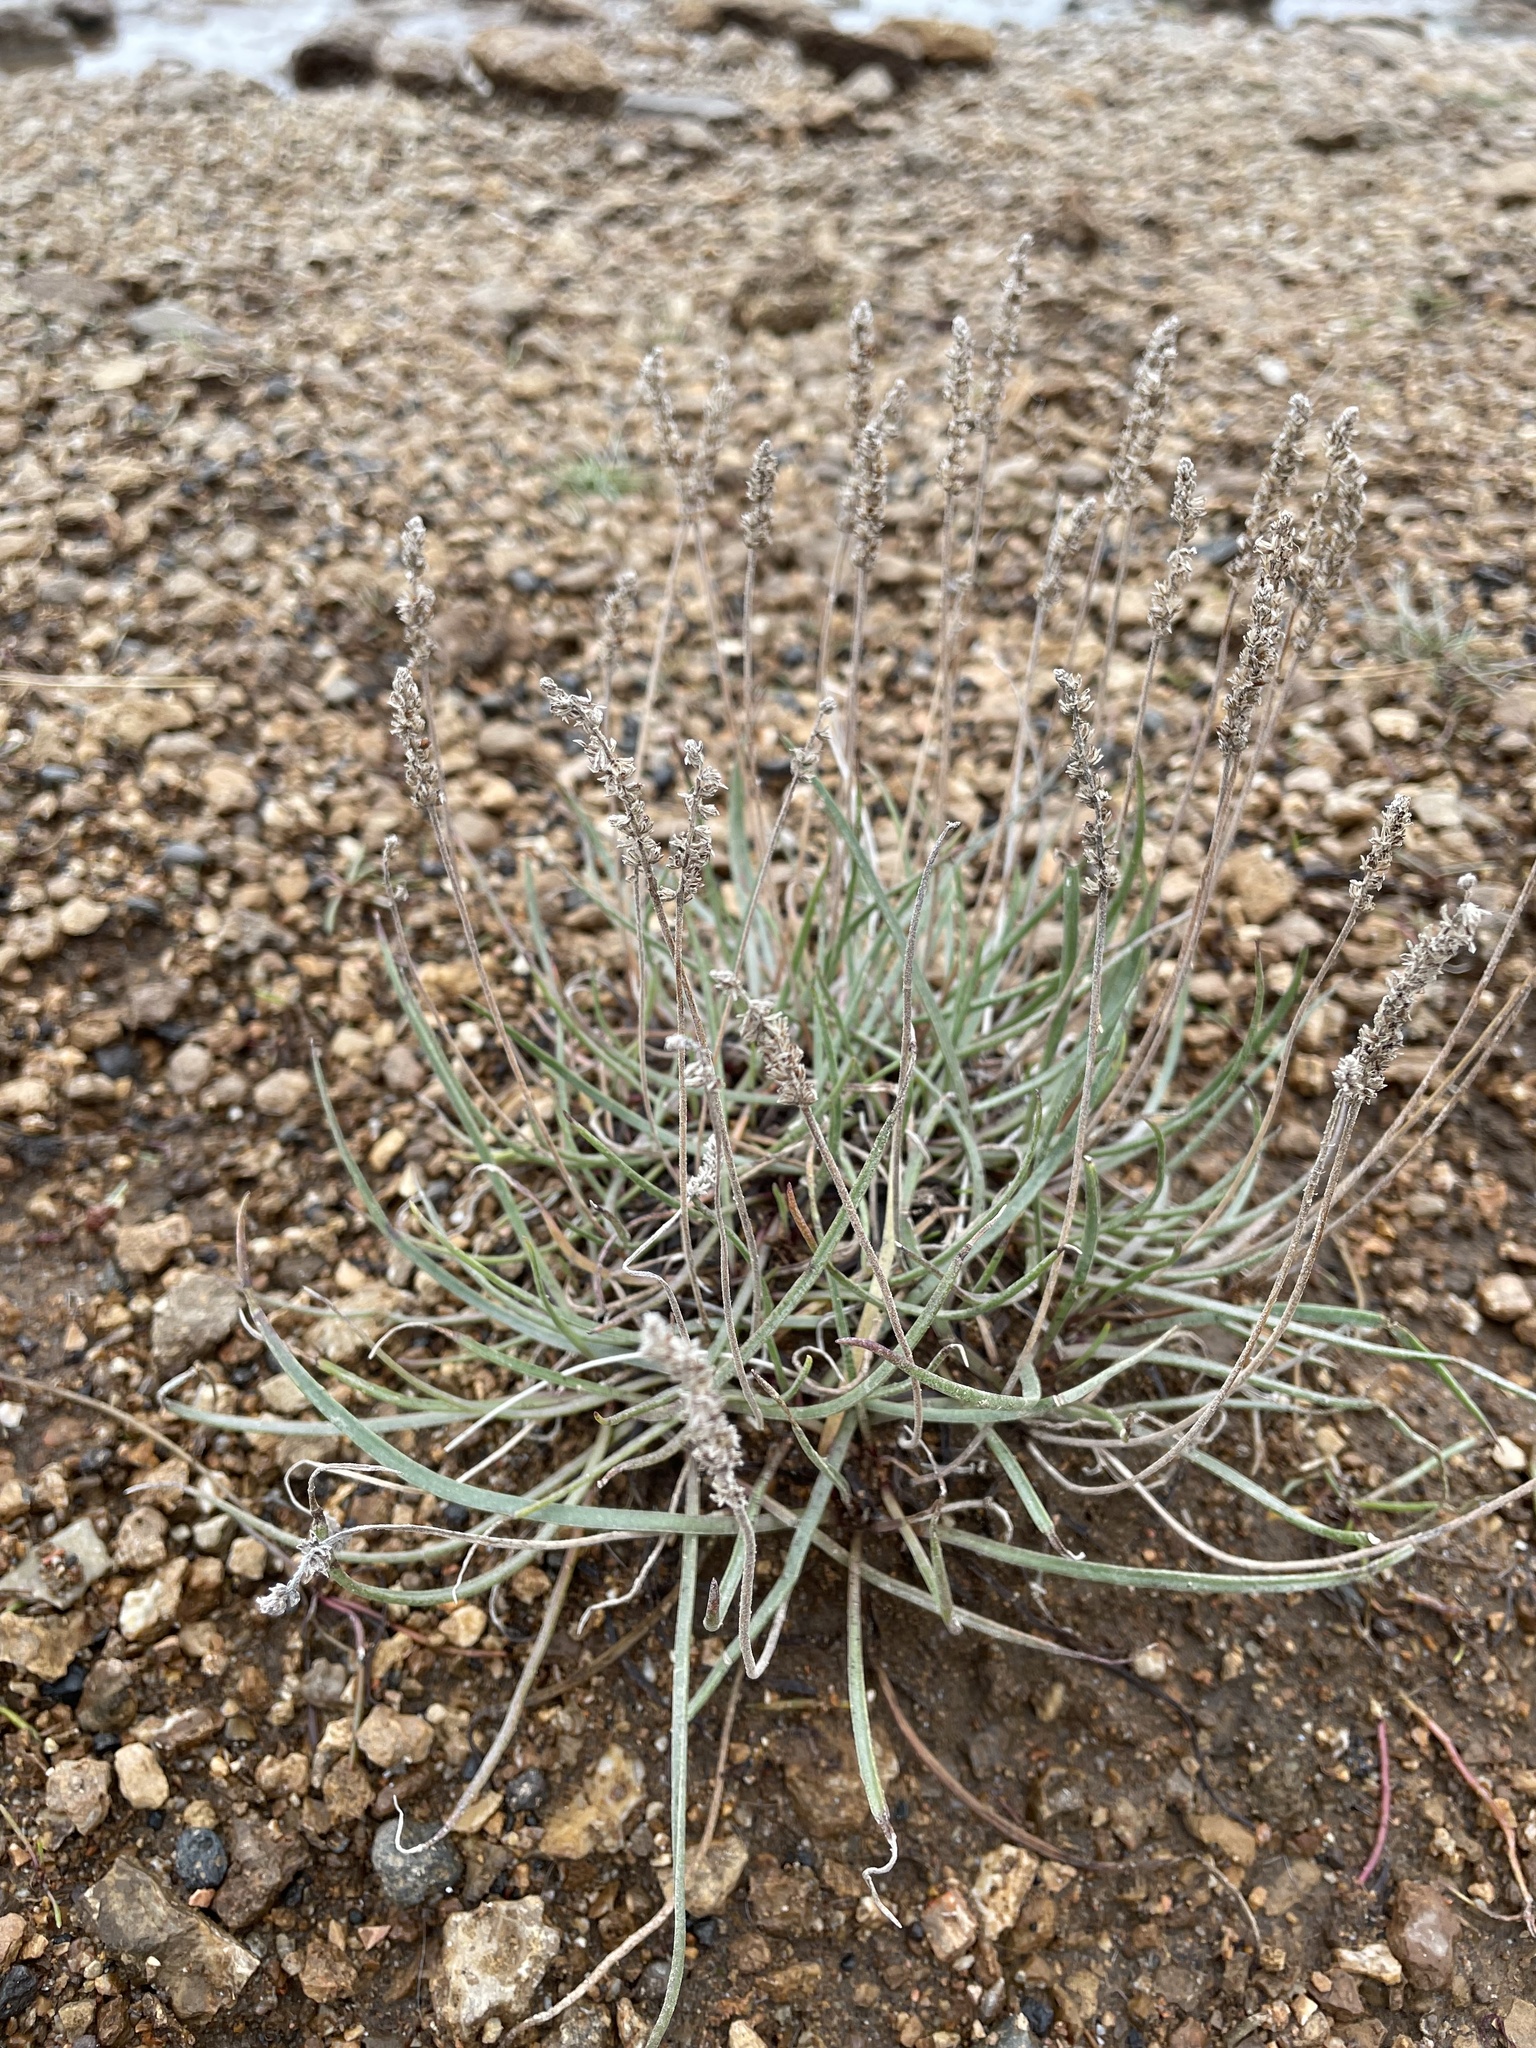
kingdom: Plantae
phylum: Tracheophyta
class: Magnoliopsida
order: Lamiales
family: Plantaginaceae
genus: Plantago
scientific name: Plantago maritima
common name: Sea plantain
